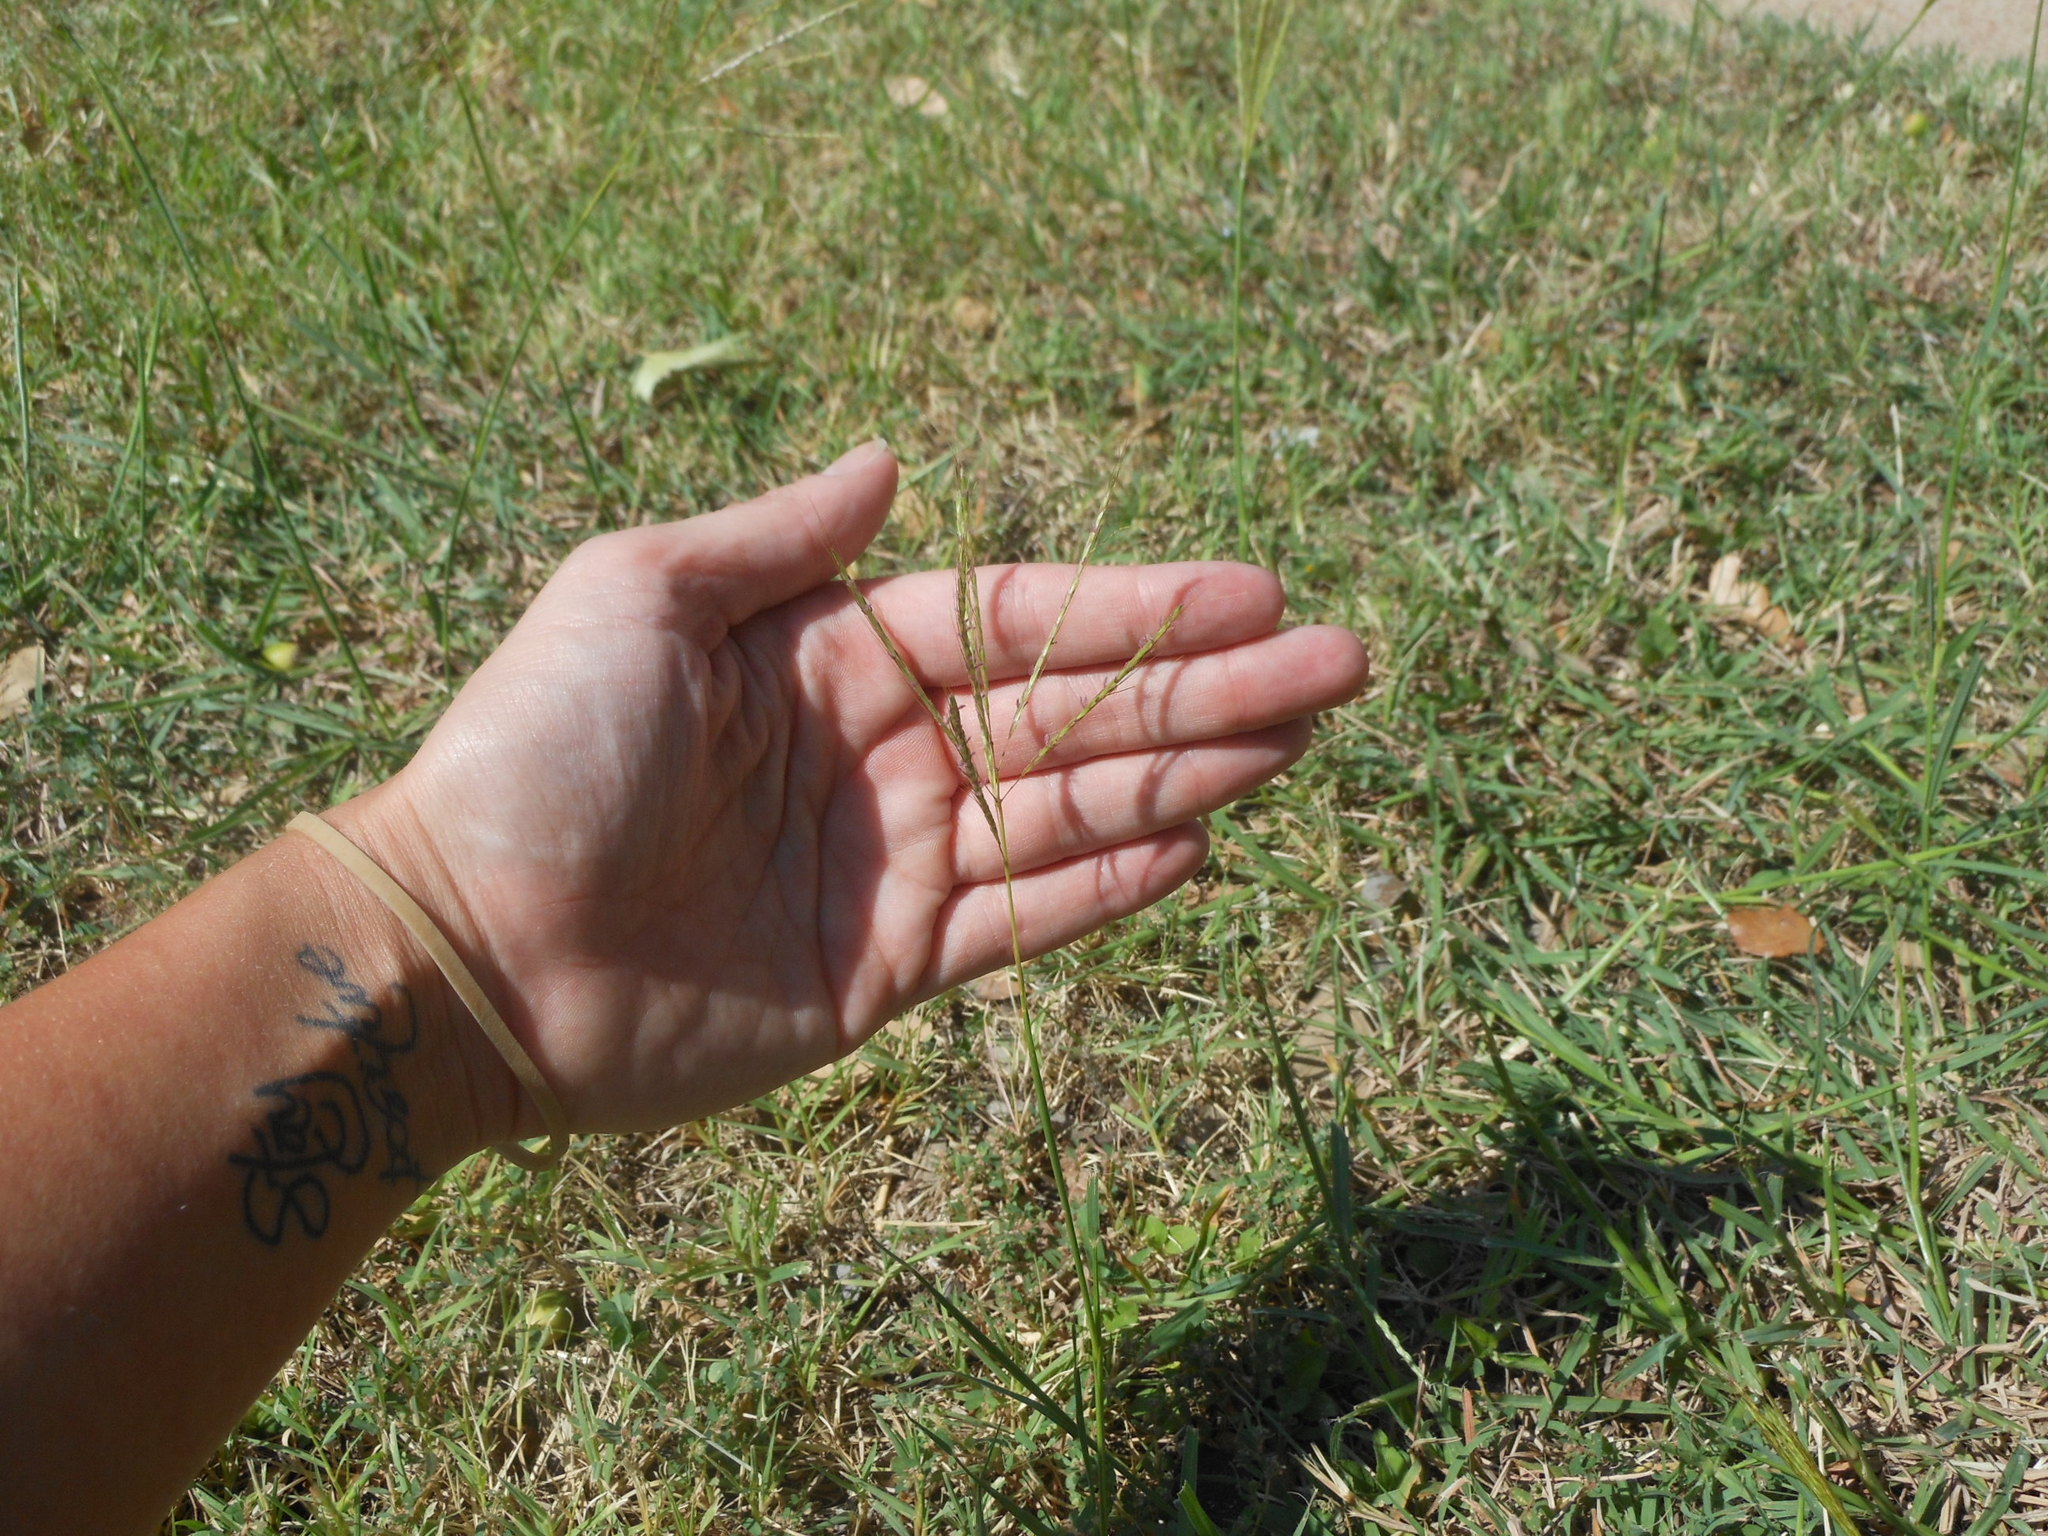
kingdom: Plantae
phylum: Tracheophyta
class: Liliopsida
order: Poales
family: Poaceae
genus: Bothriochloa
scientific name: Bothriochloa ischaemum
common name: Yellow bluestem
